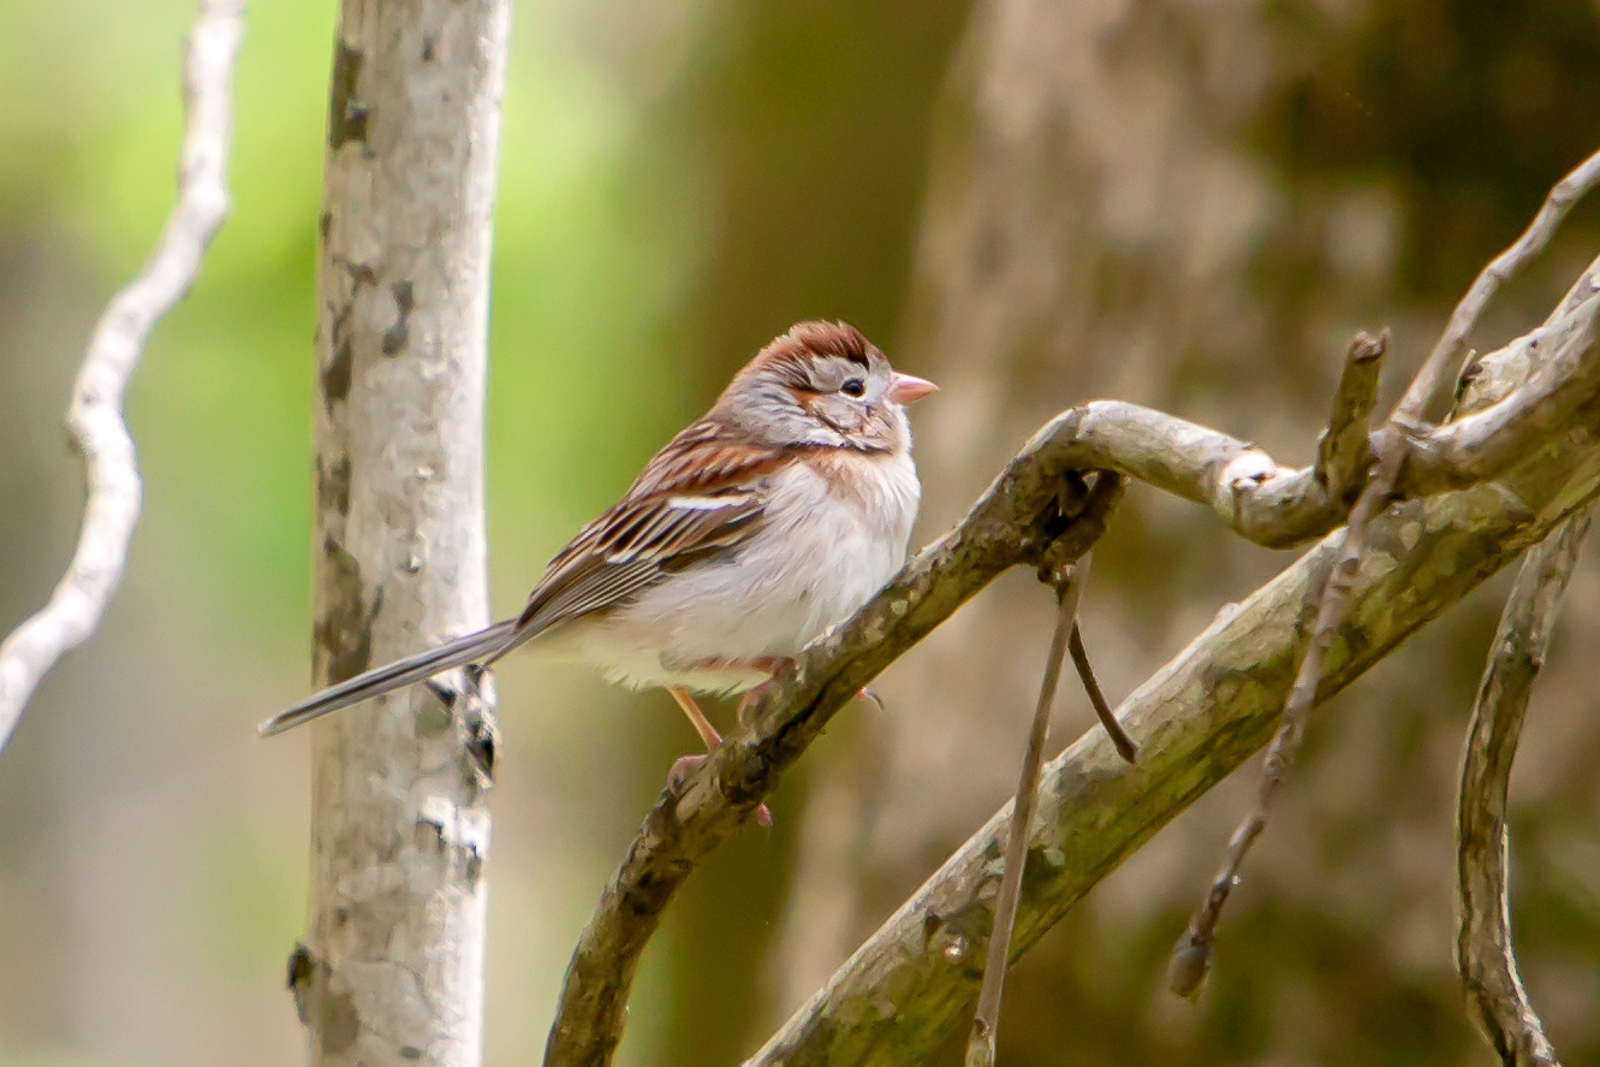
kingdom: Animalia
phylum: Chordata
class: Aves
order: Passeriformes
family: Passerellidae
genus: Spizella
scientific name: Spizella pusilla
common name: Field sparrow
